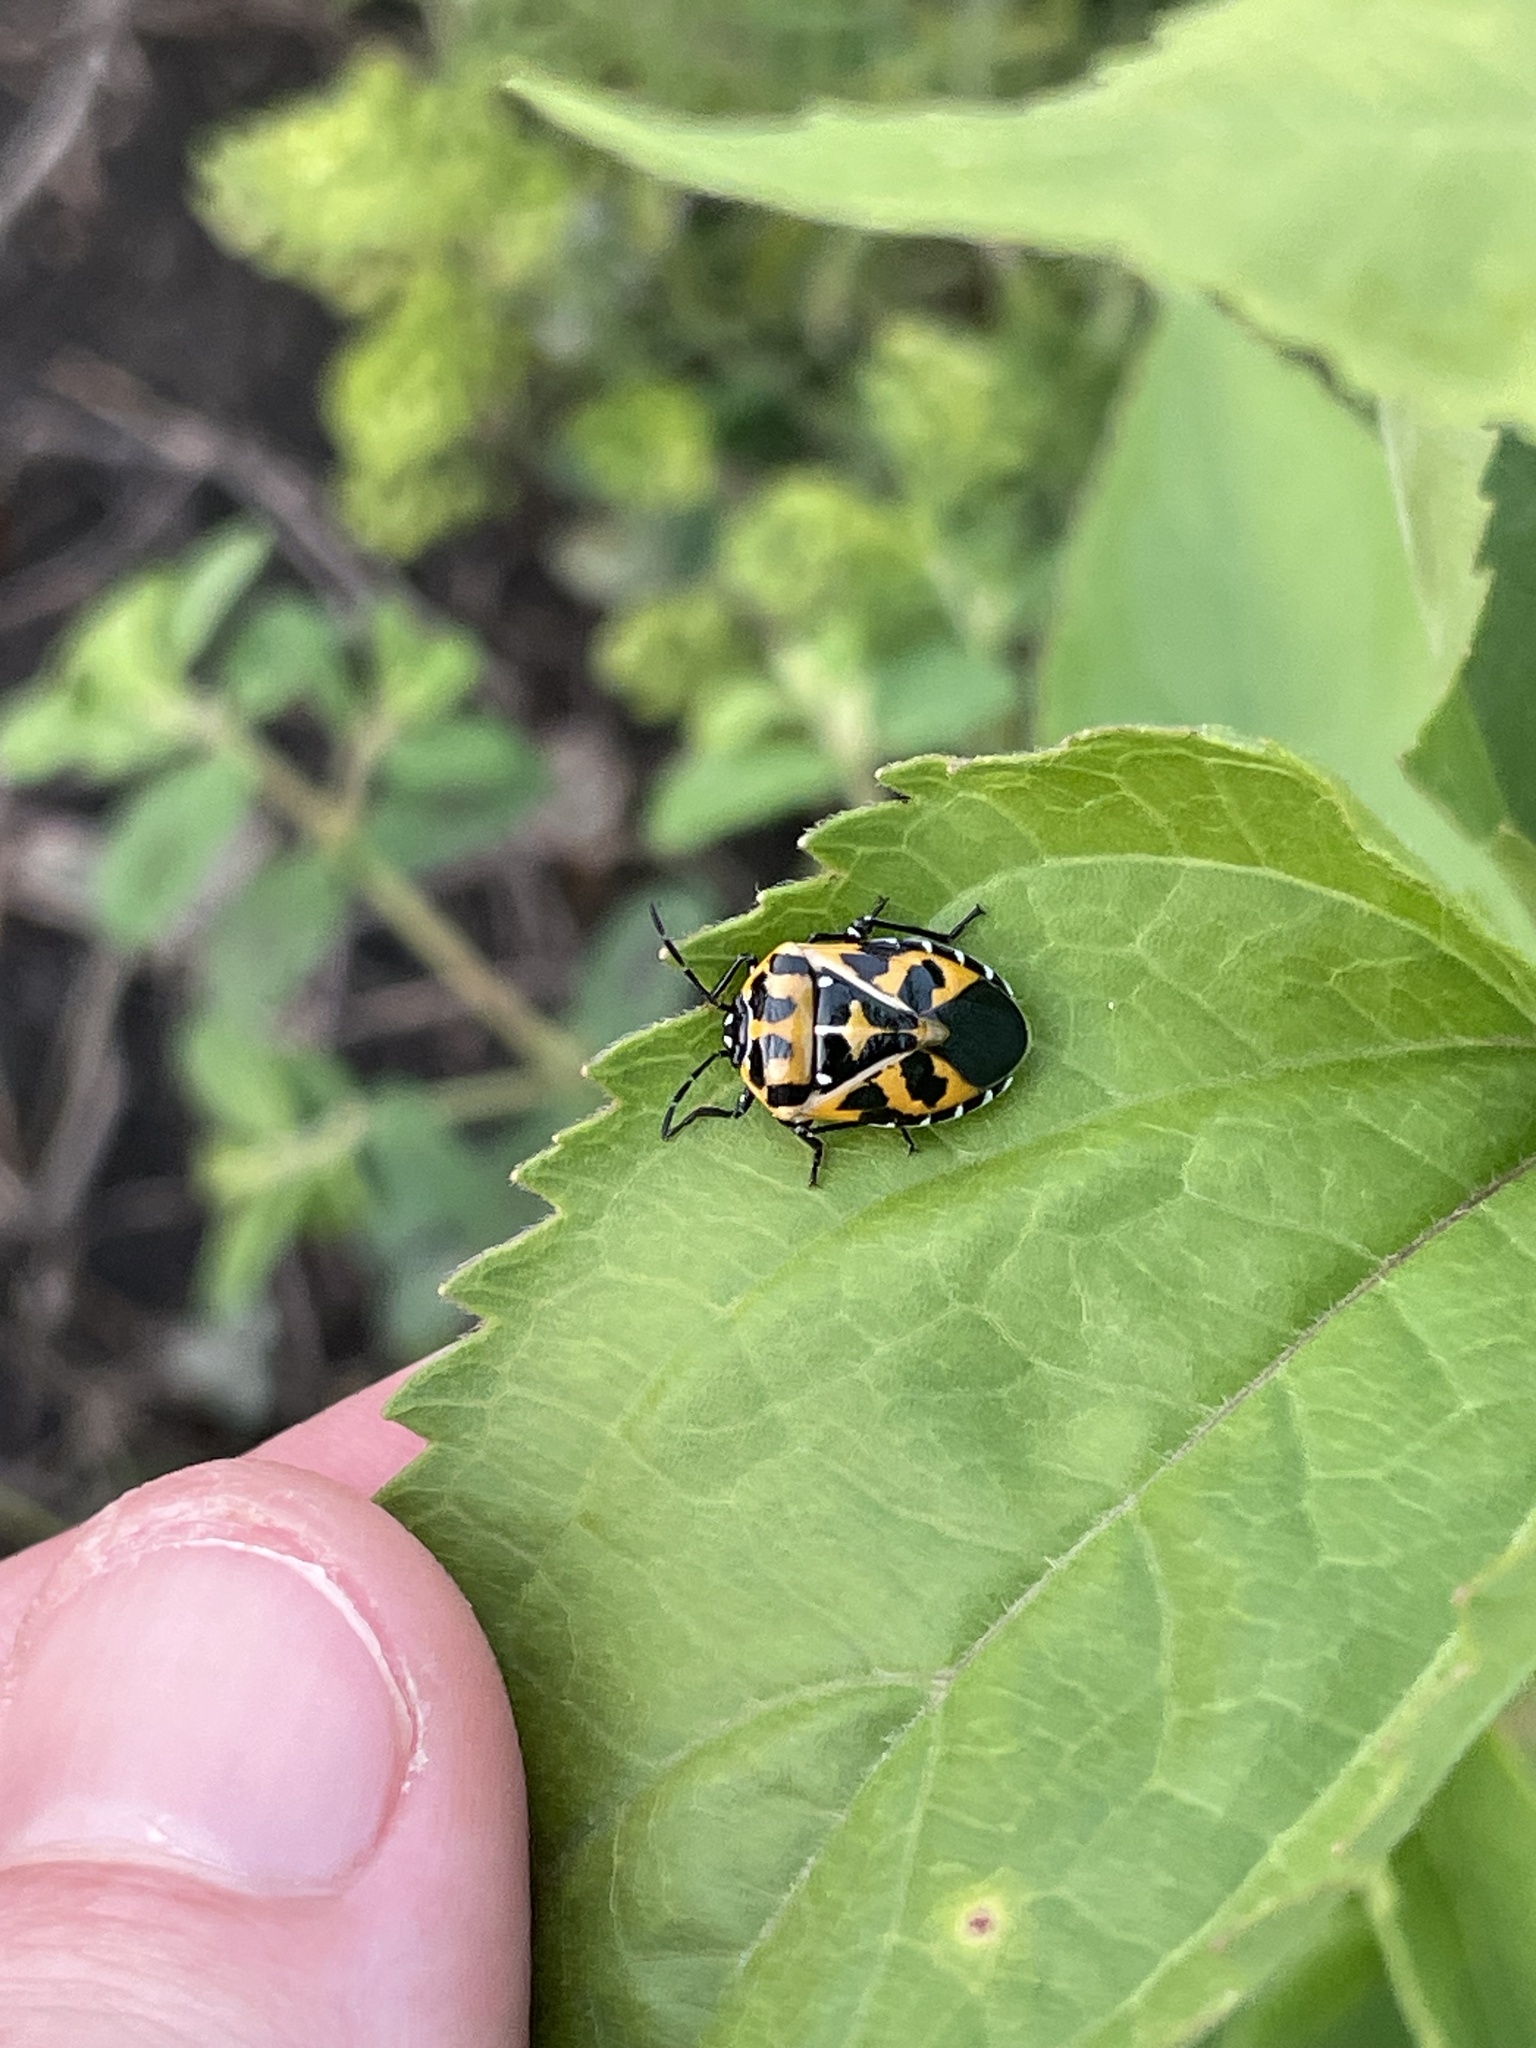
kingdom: Animalia
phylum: Arthropoda
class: Insecta
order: Hemiptera
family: Pentatomidae
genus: Murgantia
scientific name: Murgantia histrionica
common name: Harlequin bug
